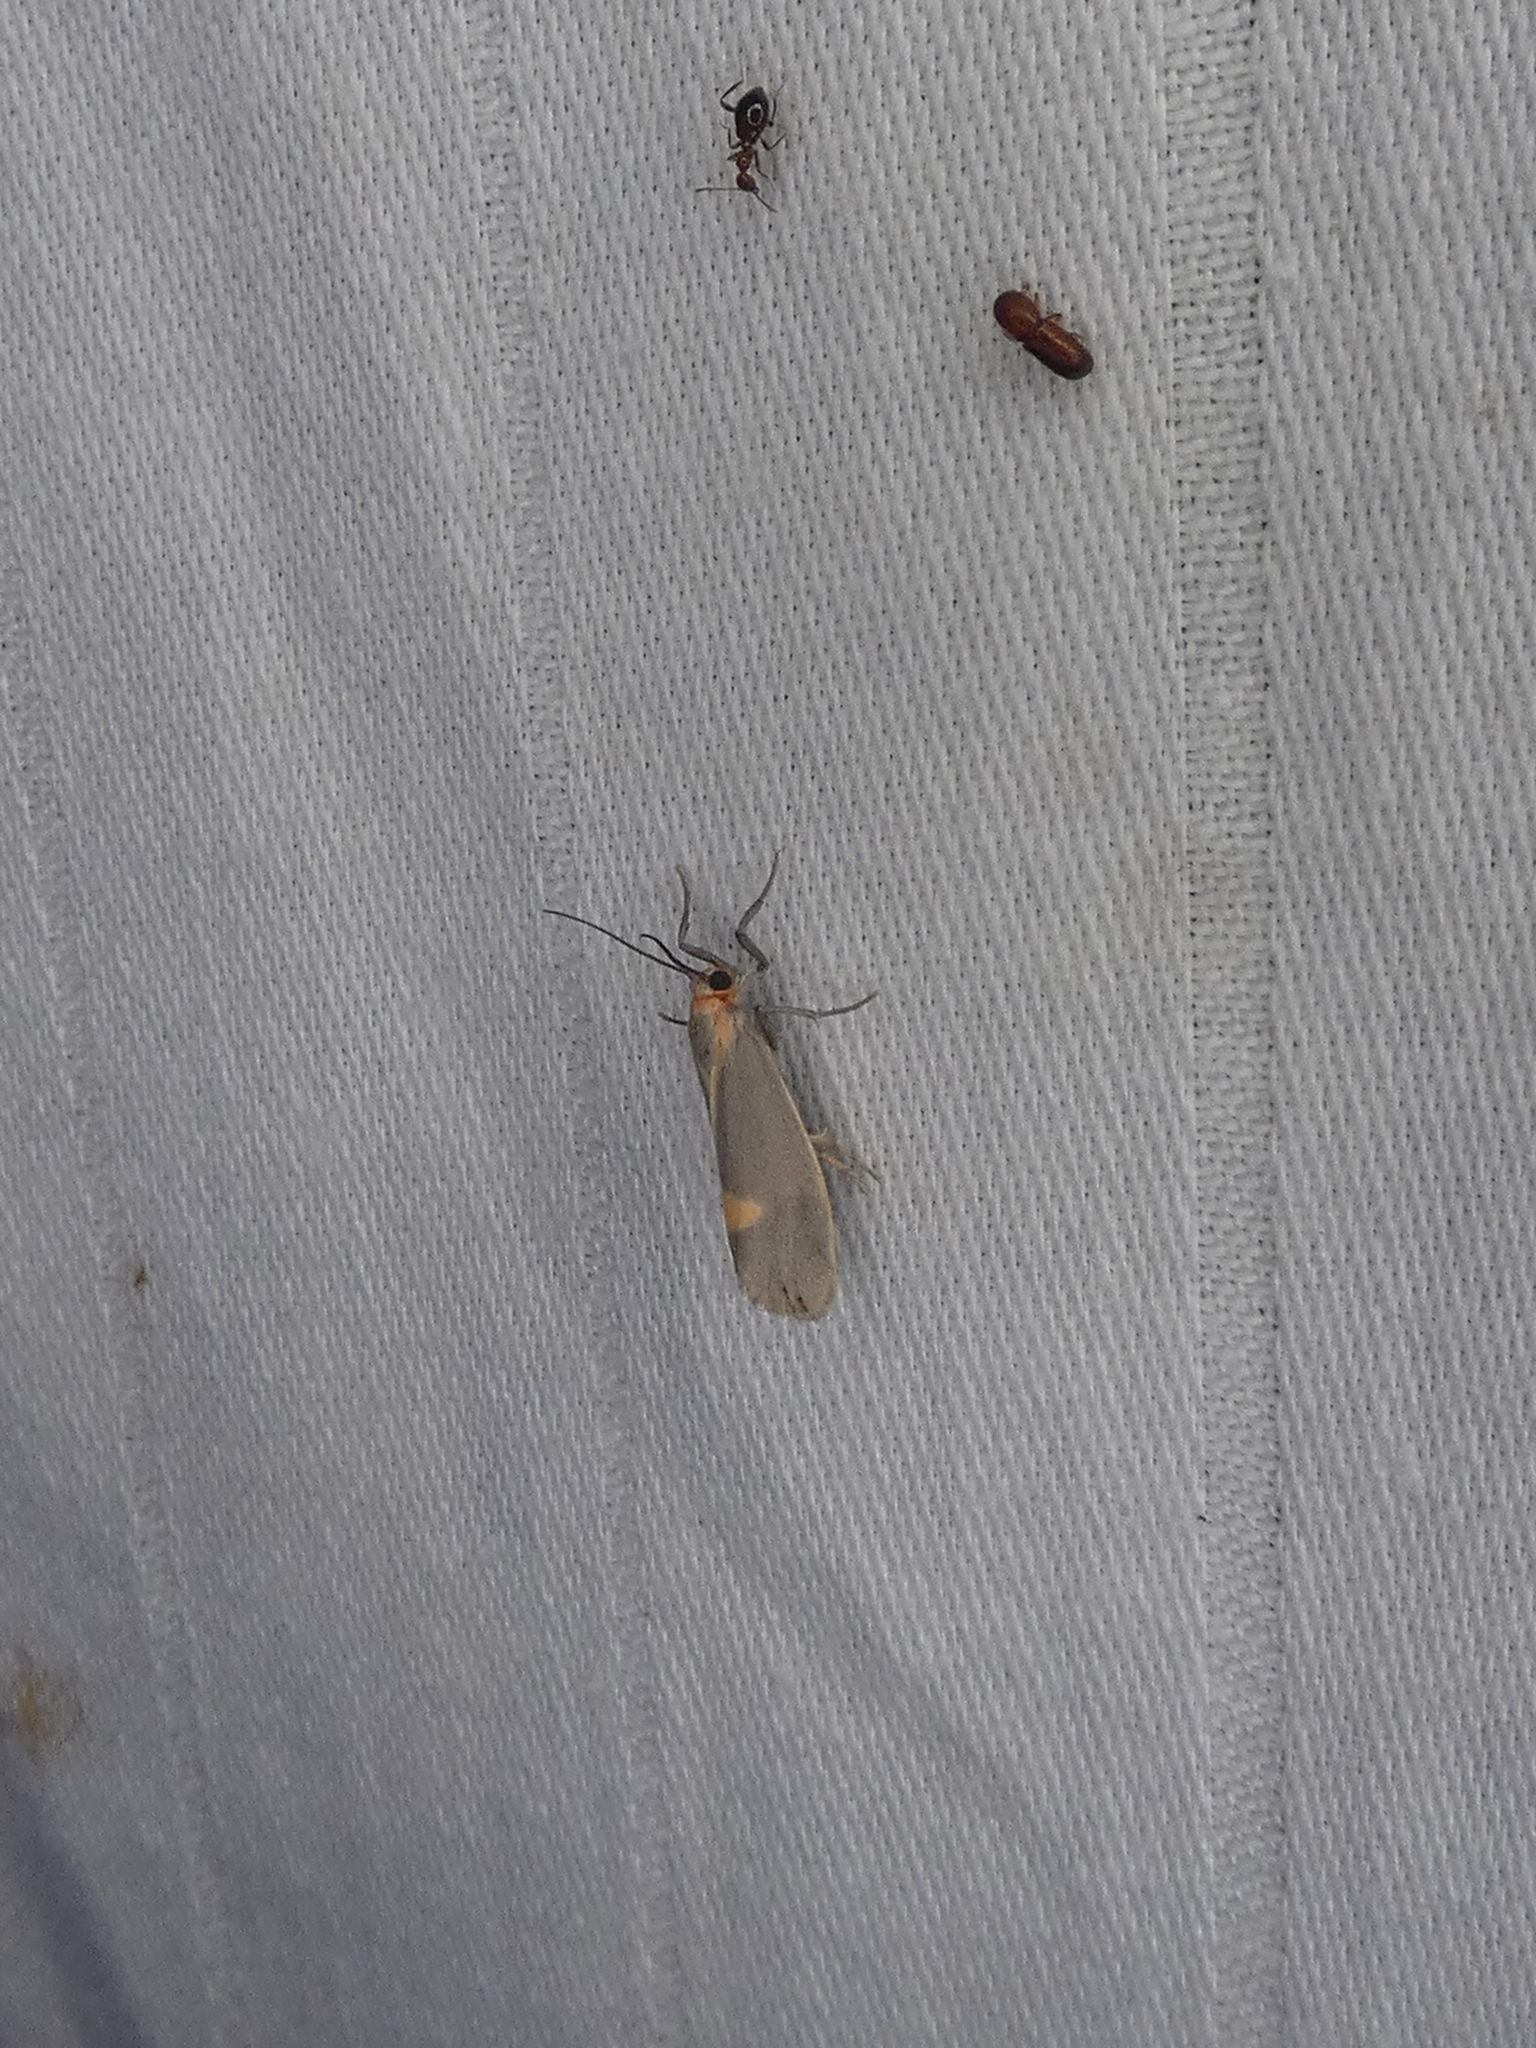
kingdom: Animalia
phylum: Arthropoda
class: Insecta
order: Lepidoptera
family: Erebidae
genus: Cisthene
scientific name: Cisthene plumbea
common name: Lead colored lichen moth
